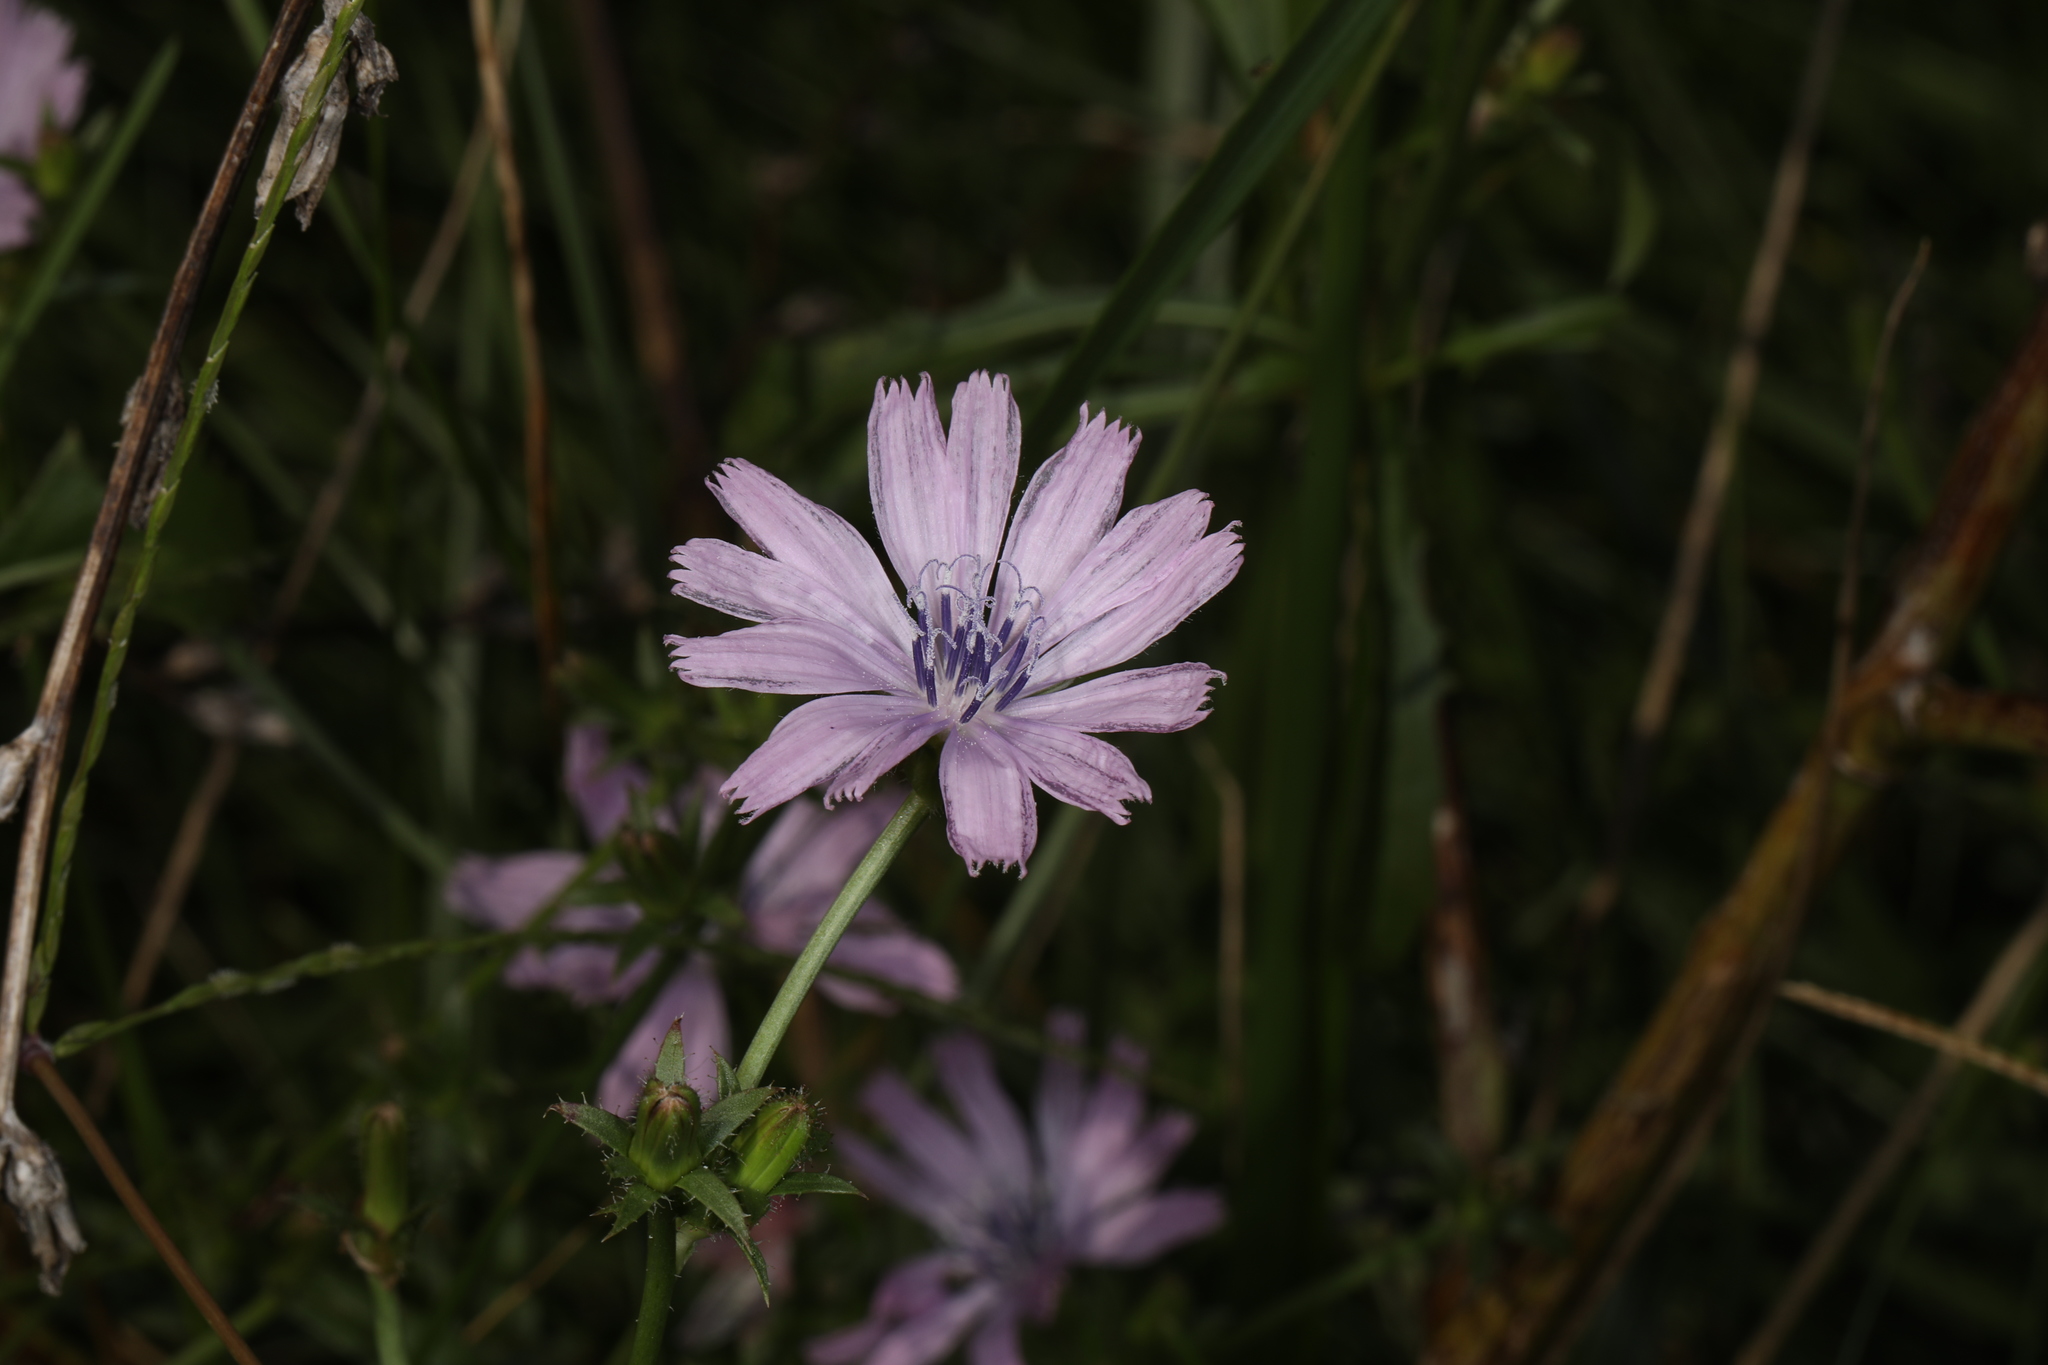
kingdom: Plantae
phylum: Tracheophyta
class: Magnoliopsida
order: Asterales
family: Asteraceae
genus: Cichorium
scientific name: Cichorium intybus
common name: Chicory
